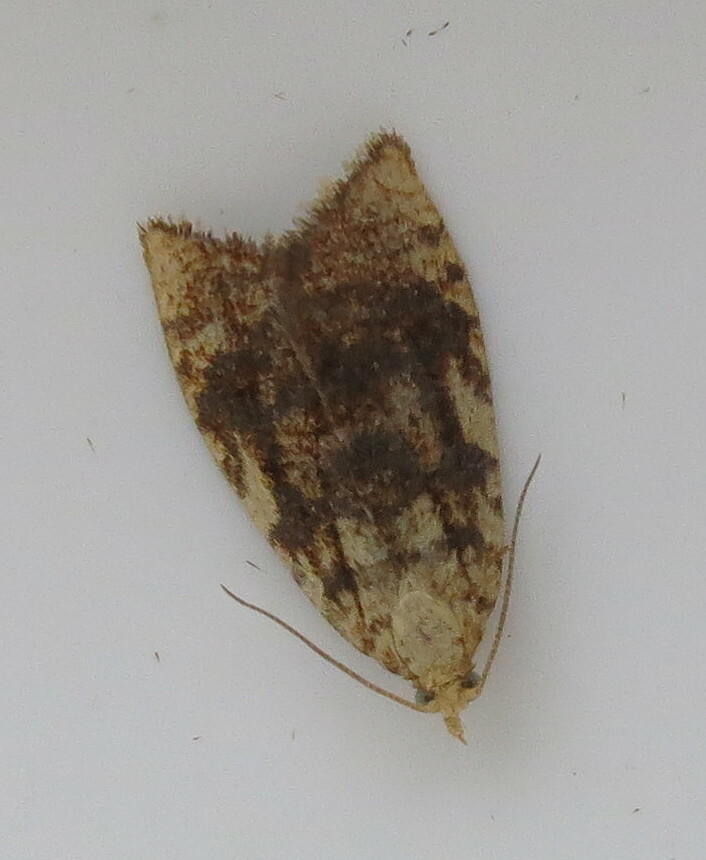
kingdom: Animalia
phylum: Arthropoda
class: Insecta
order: Lepidoptera
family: Tortricidae
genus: Aleimma
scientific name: Aleimma loeflingiana
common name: Yellow oak button
